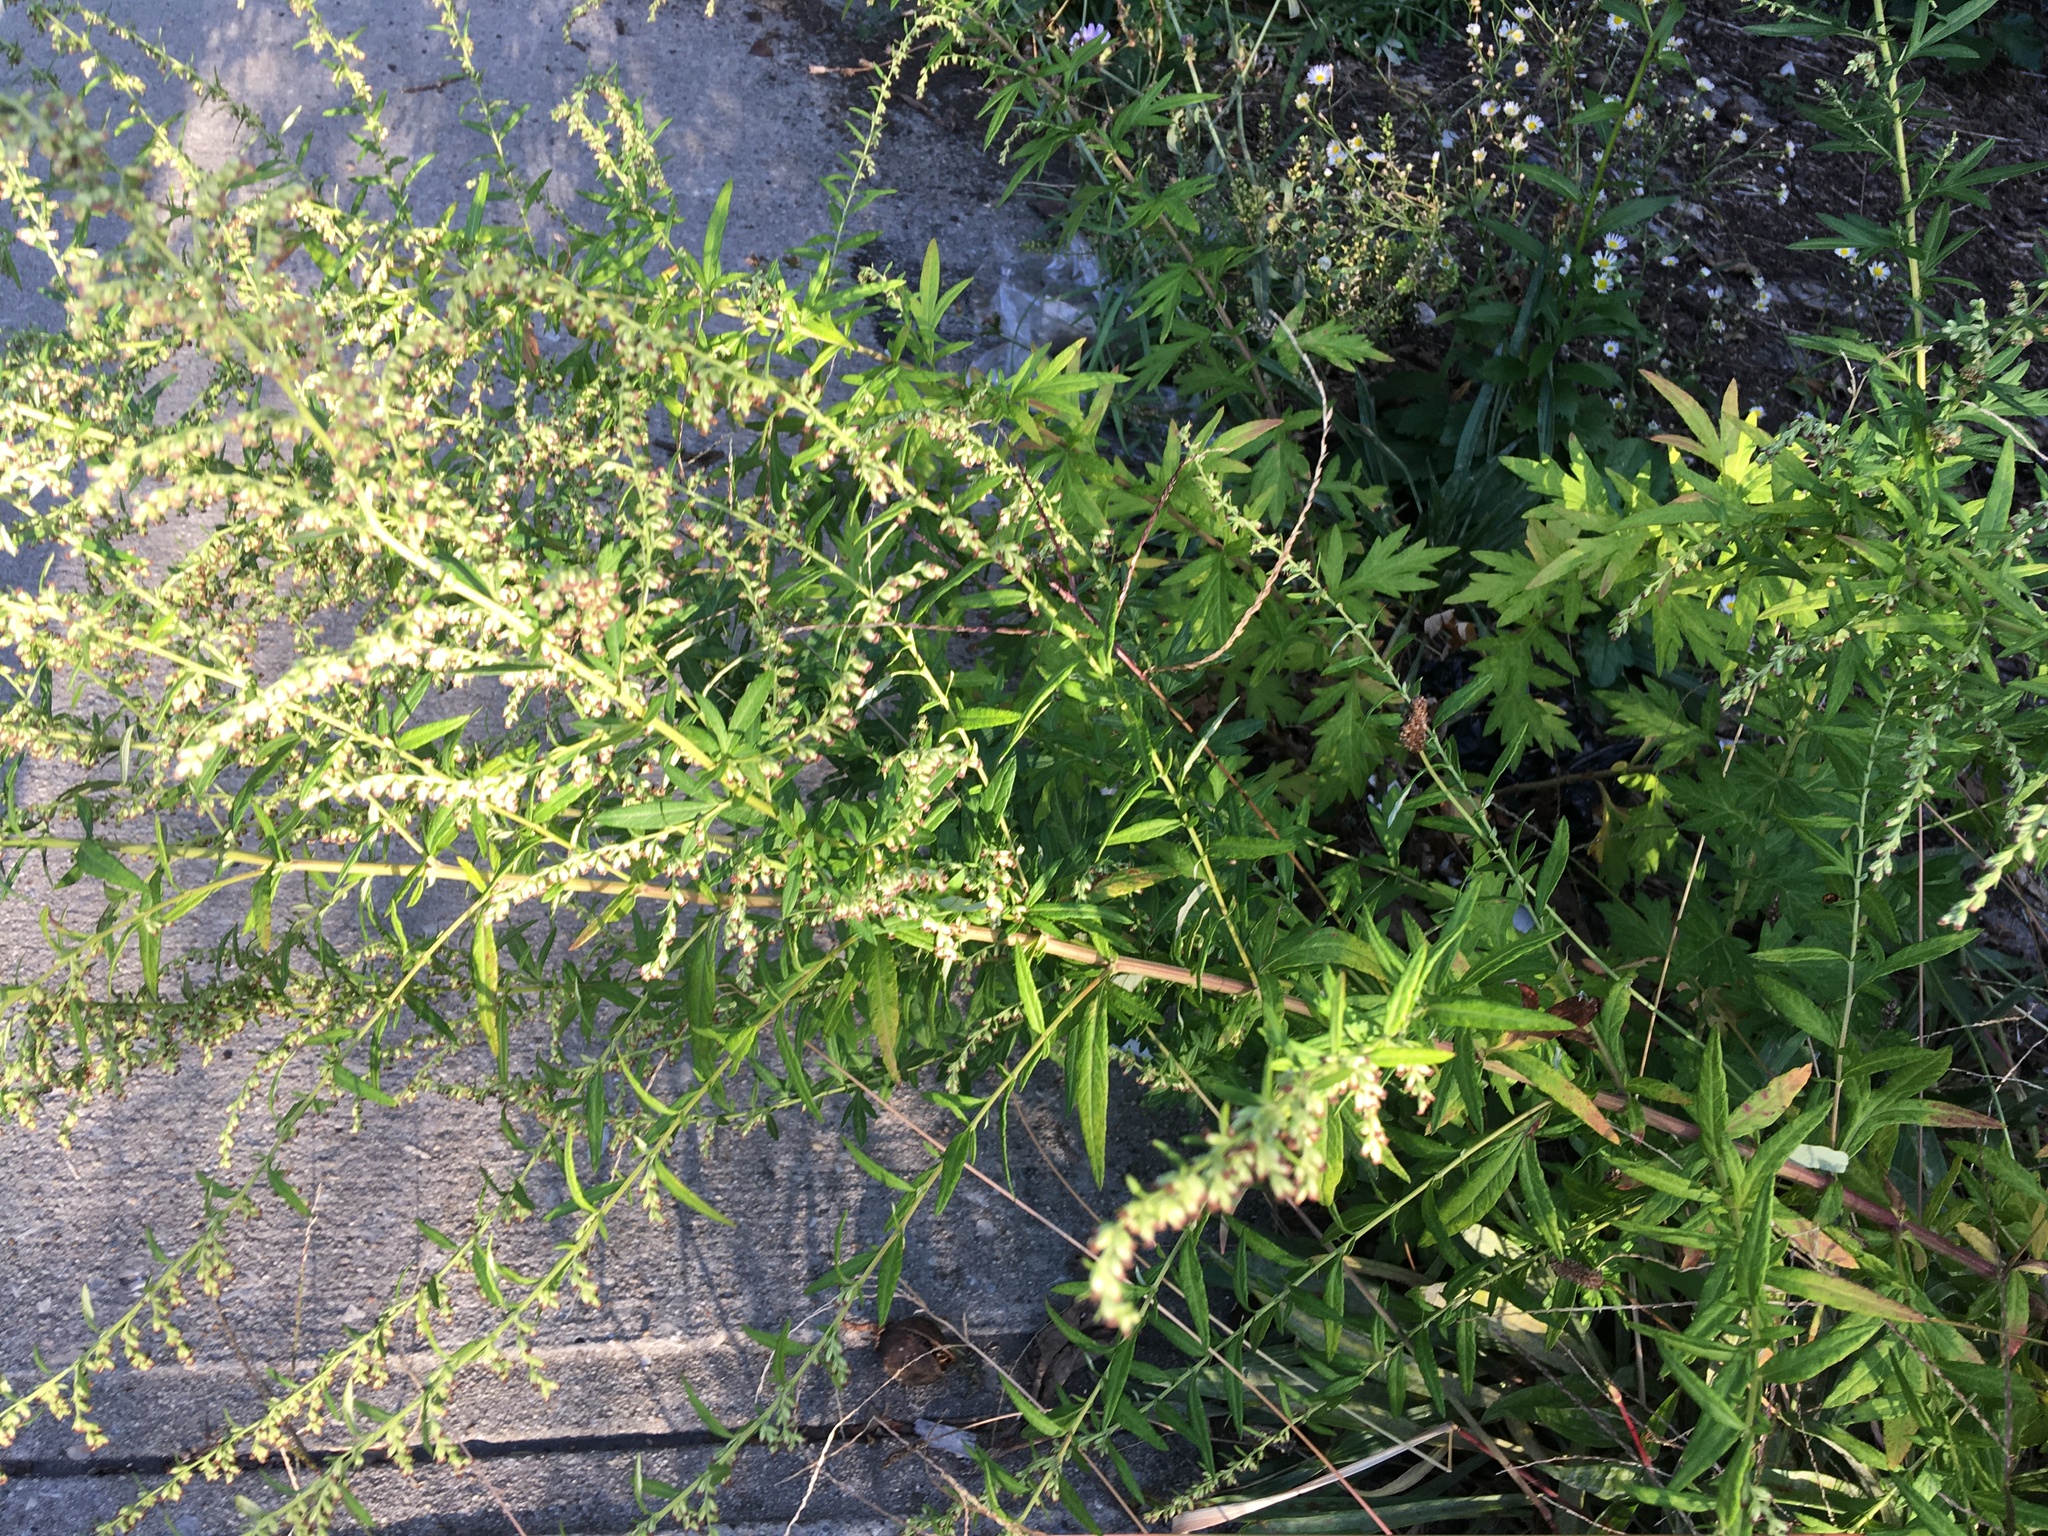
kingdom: Plantae
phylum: Tracheophyta
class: Magnoliopsida
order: Asterales
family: Asteraceae
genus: Artemisia
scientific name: Artemisia vulgaris
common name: Mugwort
